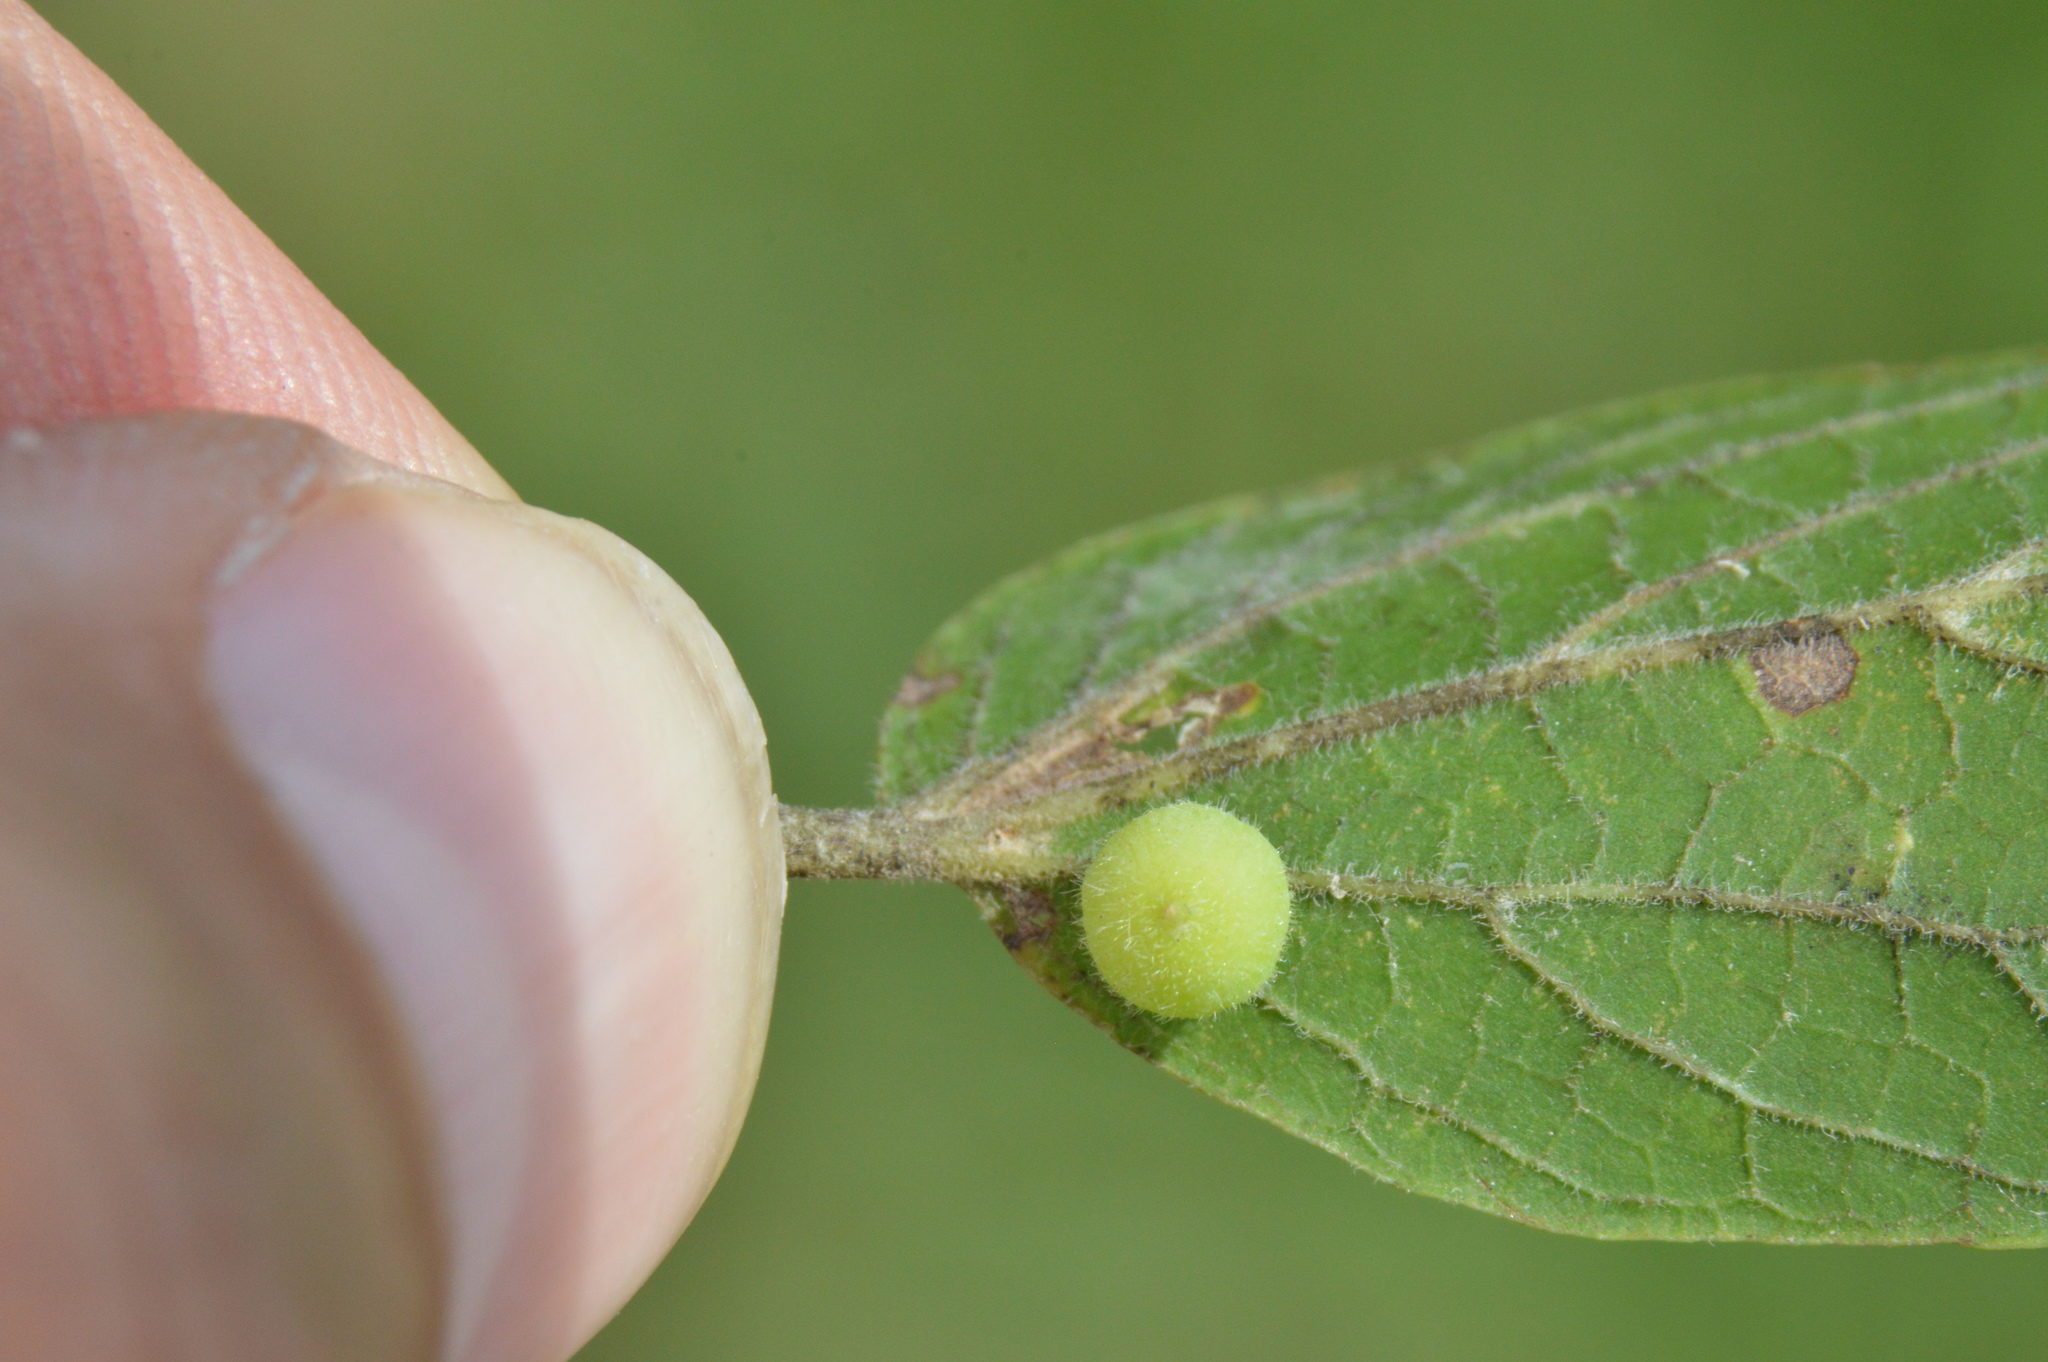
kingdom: Animalia
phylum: Arthropoda
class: Insecta
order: Diptera
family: Cecidomyiidae
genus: Celticecis
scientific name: Celticecis globosa
